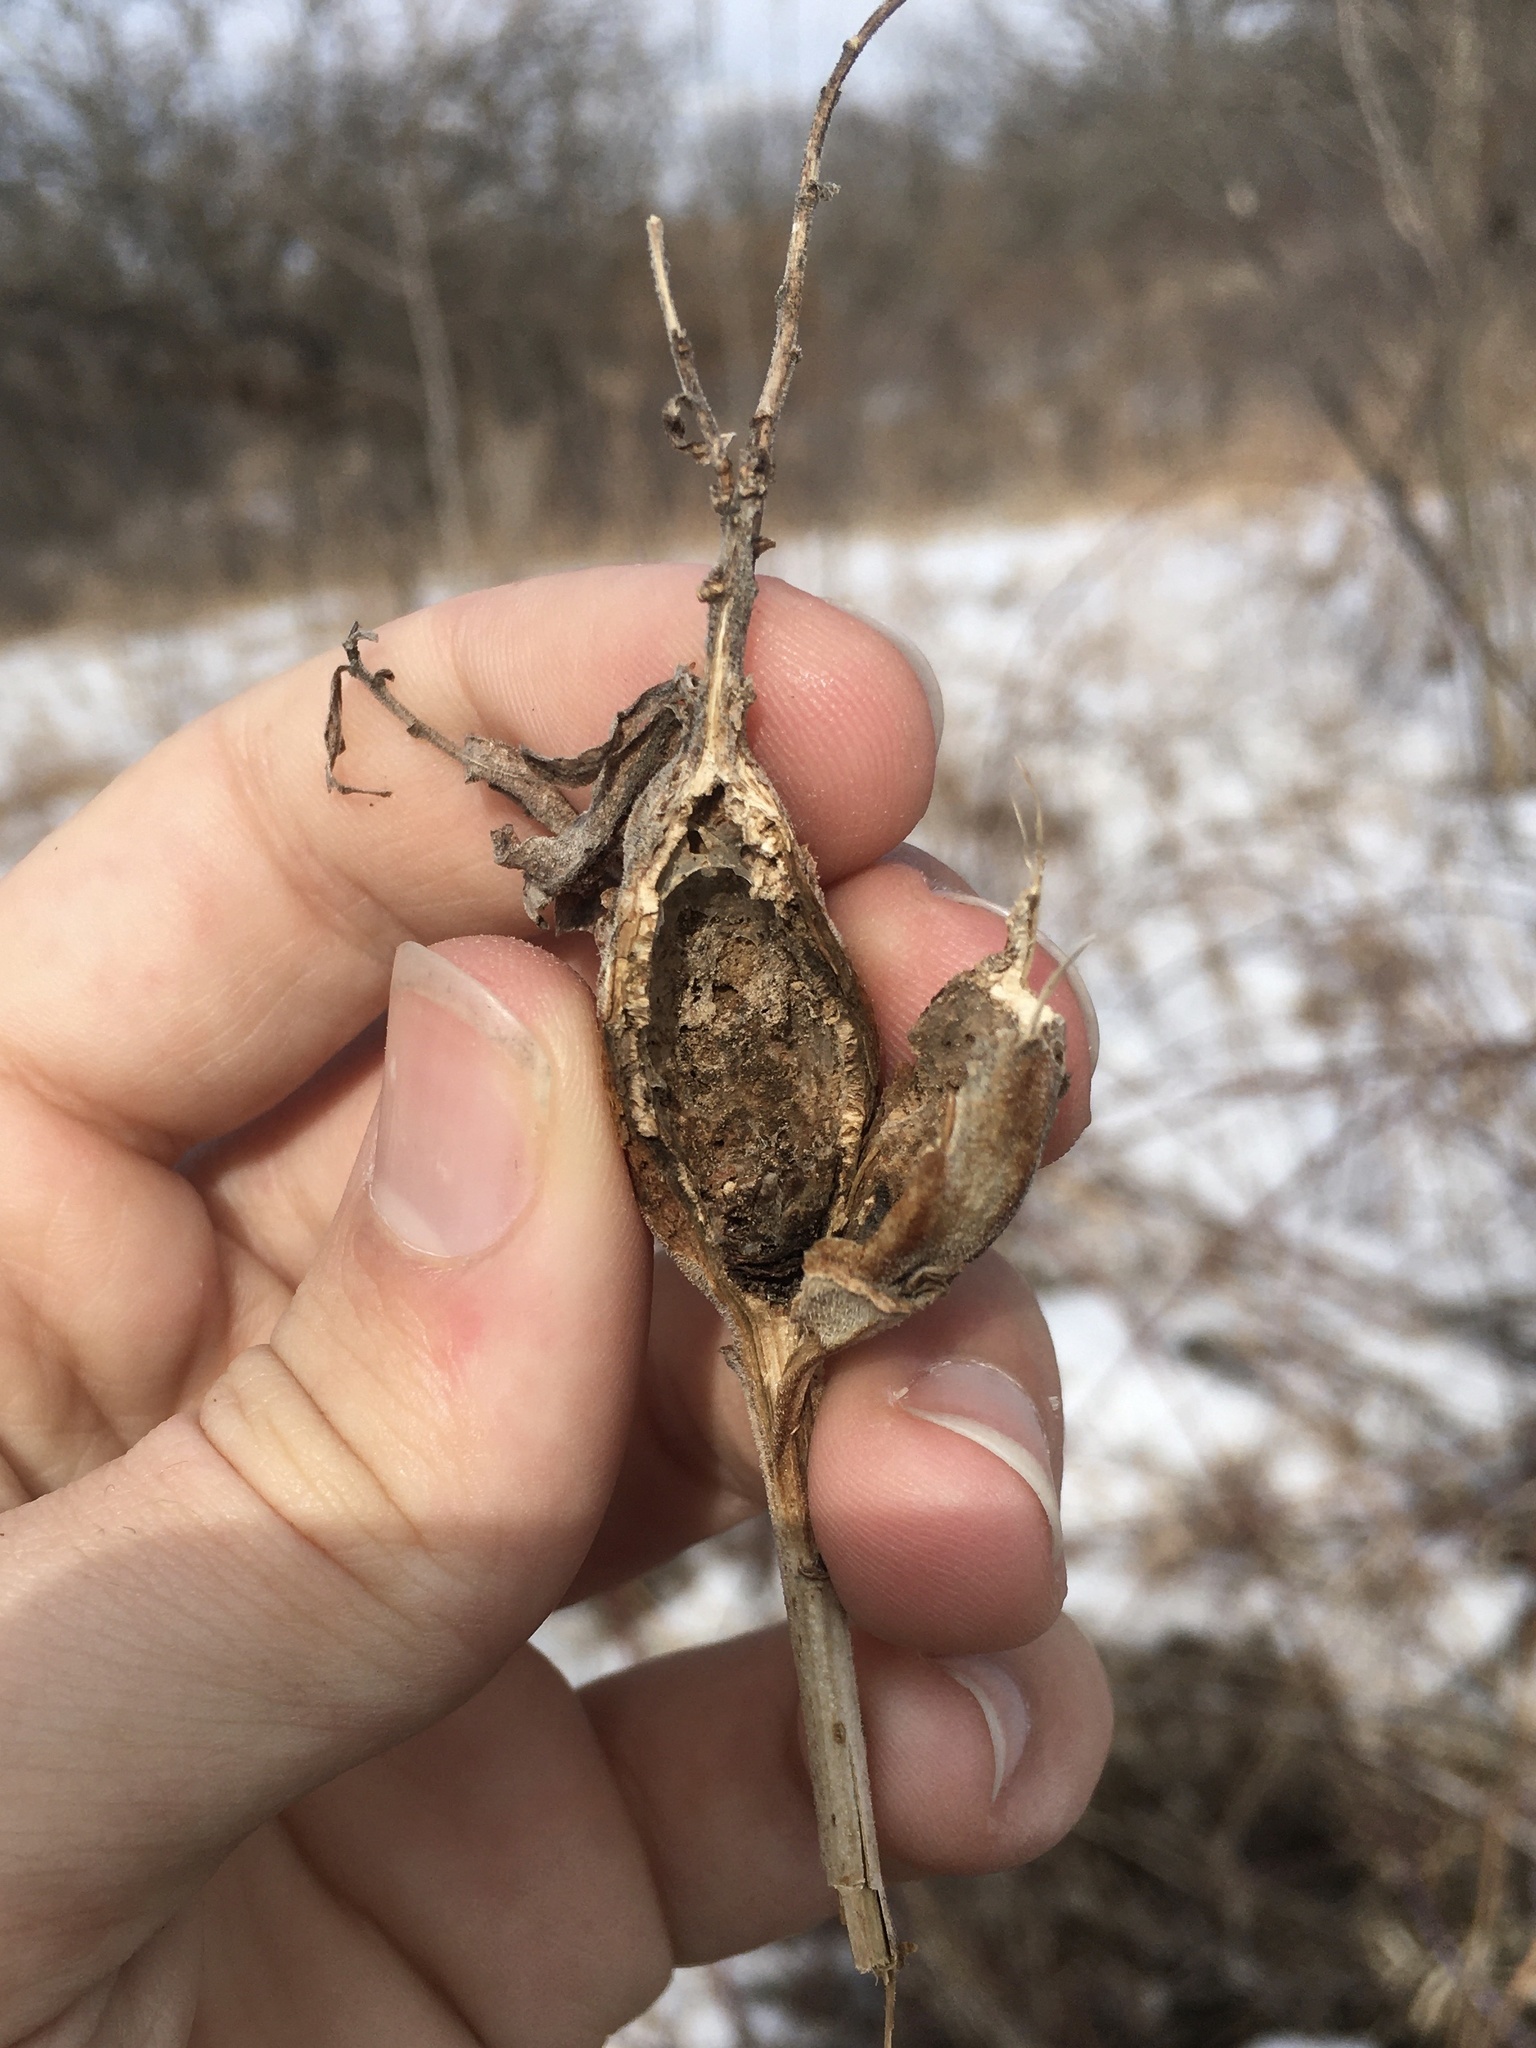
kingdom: Animalia
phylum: Arthropoda
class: Insecta
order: Lepidoptera
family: Gelechiidae
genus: Gnorimoschema
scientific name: Gnorimoschema gallaesolidaginis
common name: Goldenrod elliptical-gall moth
